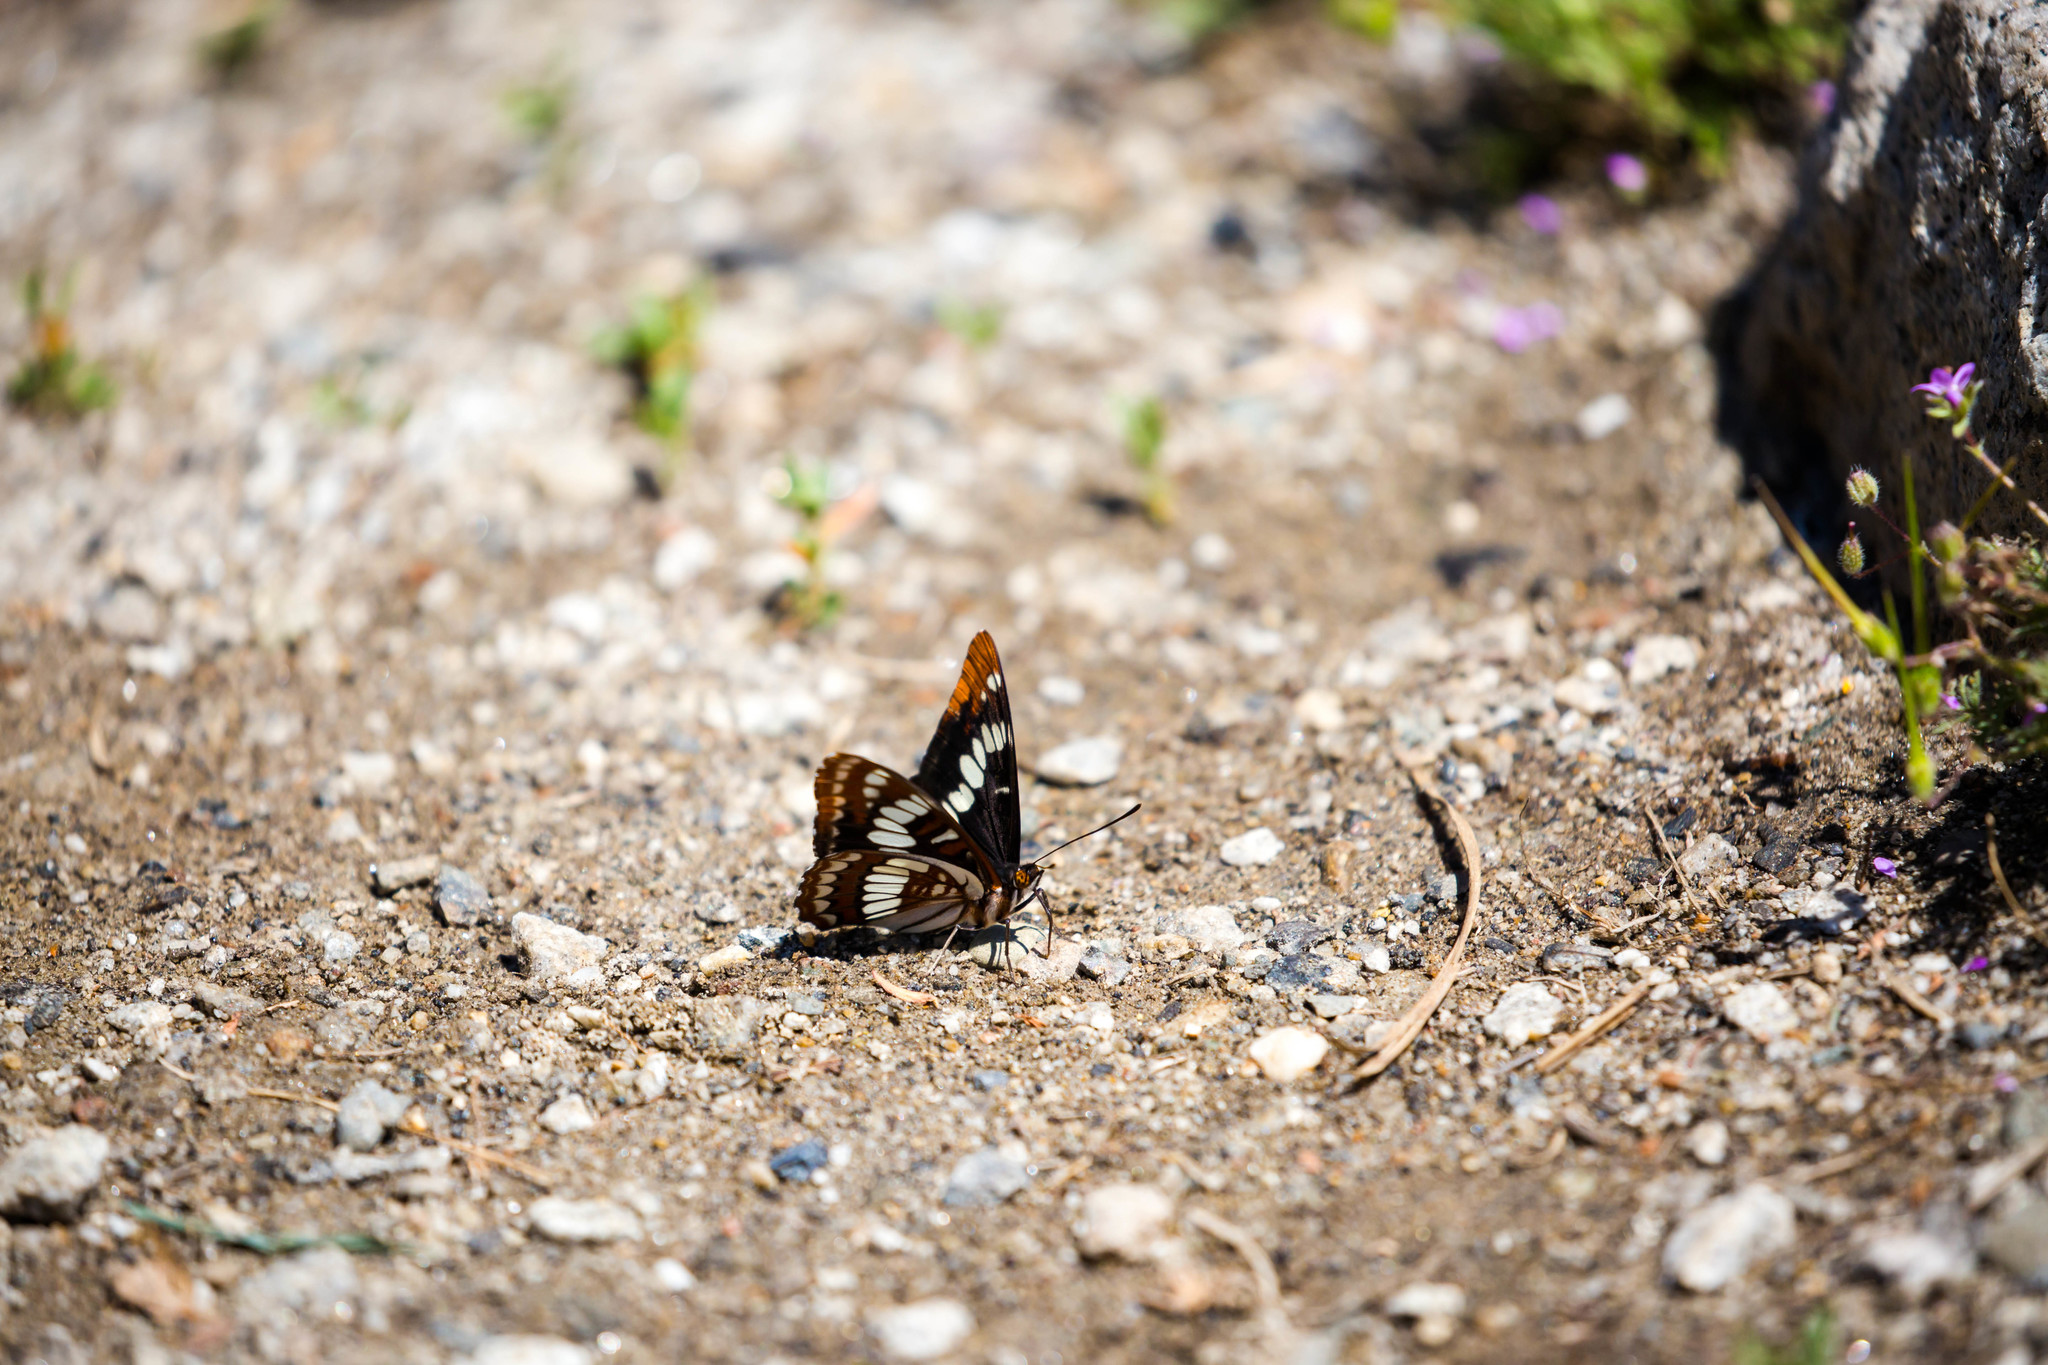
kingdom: Animalia
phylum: Arthropoda
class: Insecta
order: Lepidoptera
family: Nymphalidae
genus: Limenitis
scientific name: Limenitis lorquini
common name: Lorquin's admiral
